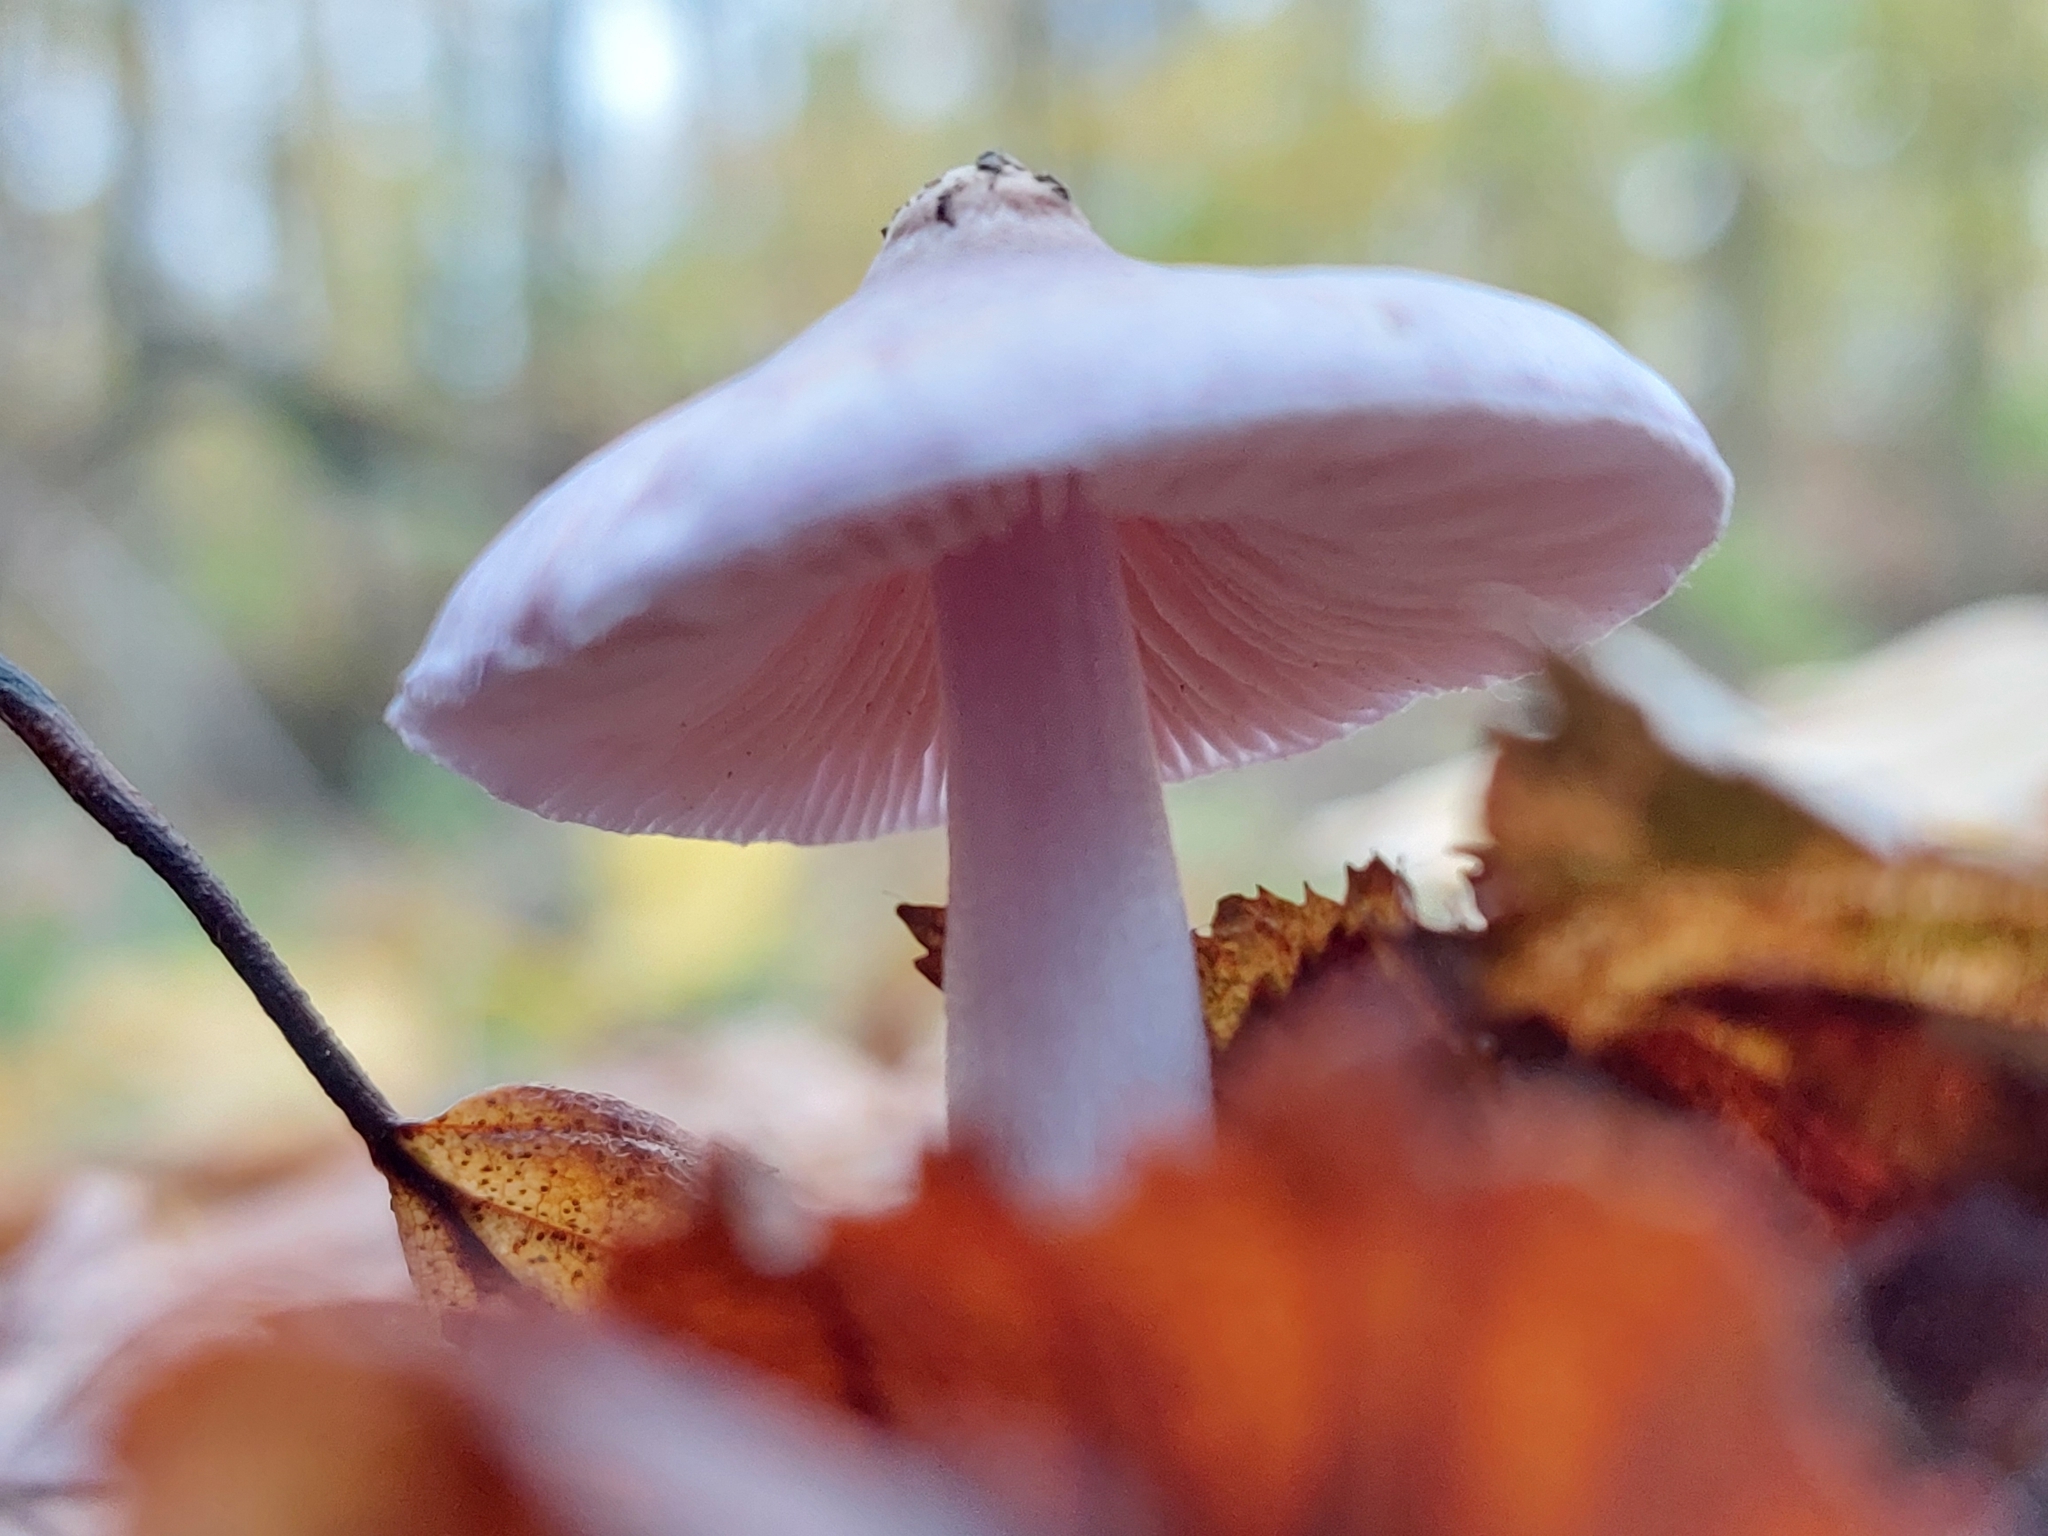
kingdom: Fungi
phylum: Basidiomycota
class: Agaricomycetes
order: Agaricales
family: Inocybaceae
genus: Inocybe
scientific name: Inocybe geophylla
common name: White fibrecap
